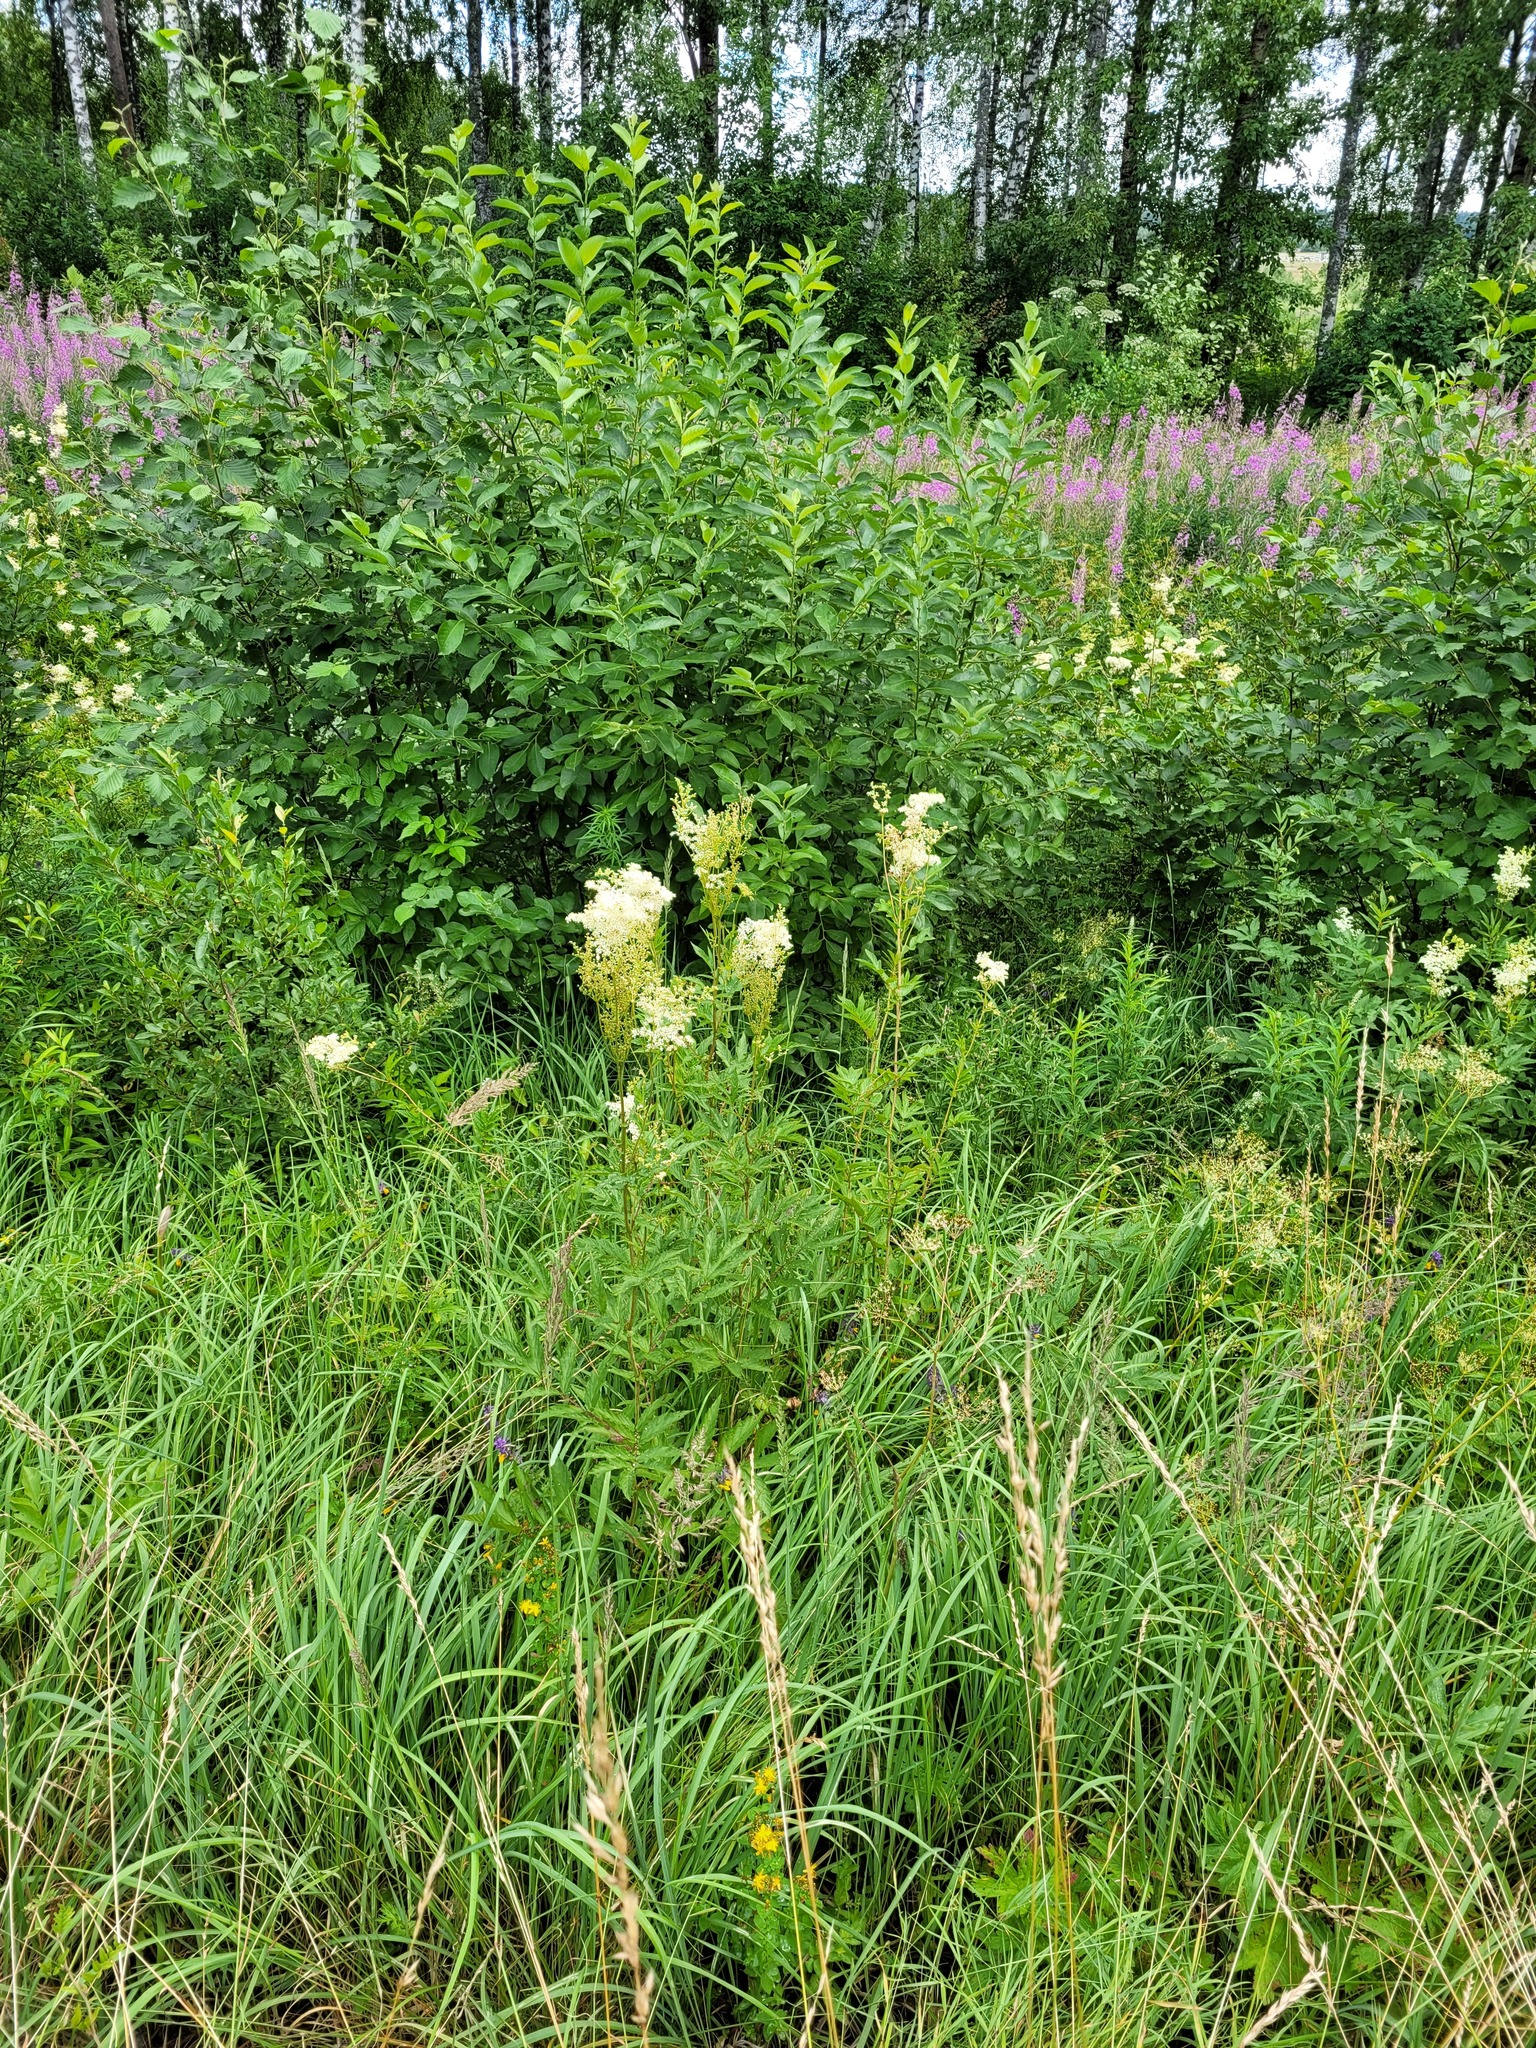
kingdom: Plantae
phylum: Tracheophyta
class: Magnoliopsida
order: Rosales
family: Rosaceae
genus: Filipendula
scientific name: Filipendula ulmaria
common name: Meadowsweet
